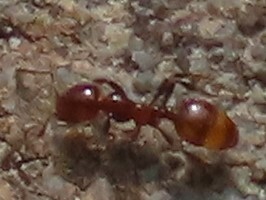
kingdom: Animalia
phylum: Arthropoda
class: Insecta
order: Hymenoptera
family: Formicidae
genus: Monomorium
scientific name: Monomorium antarcticum
